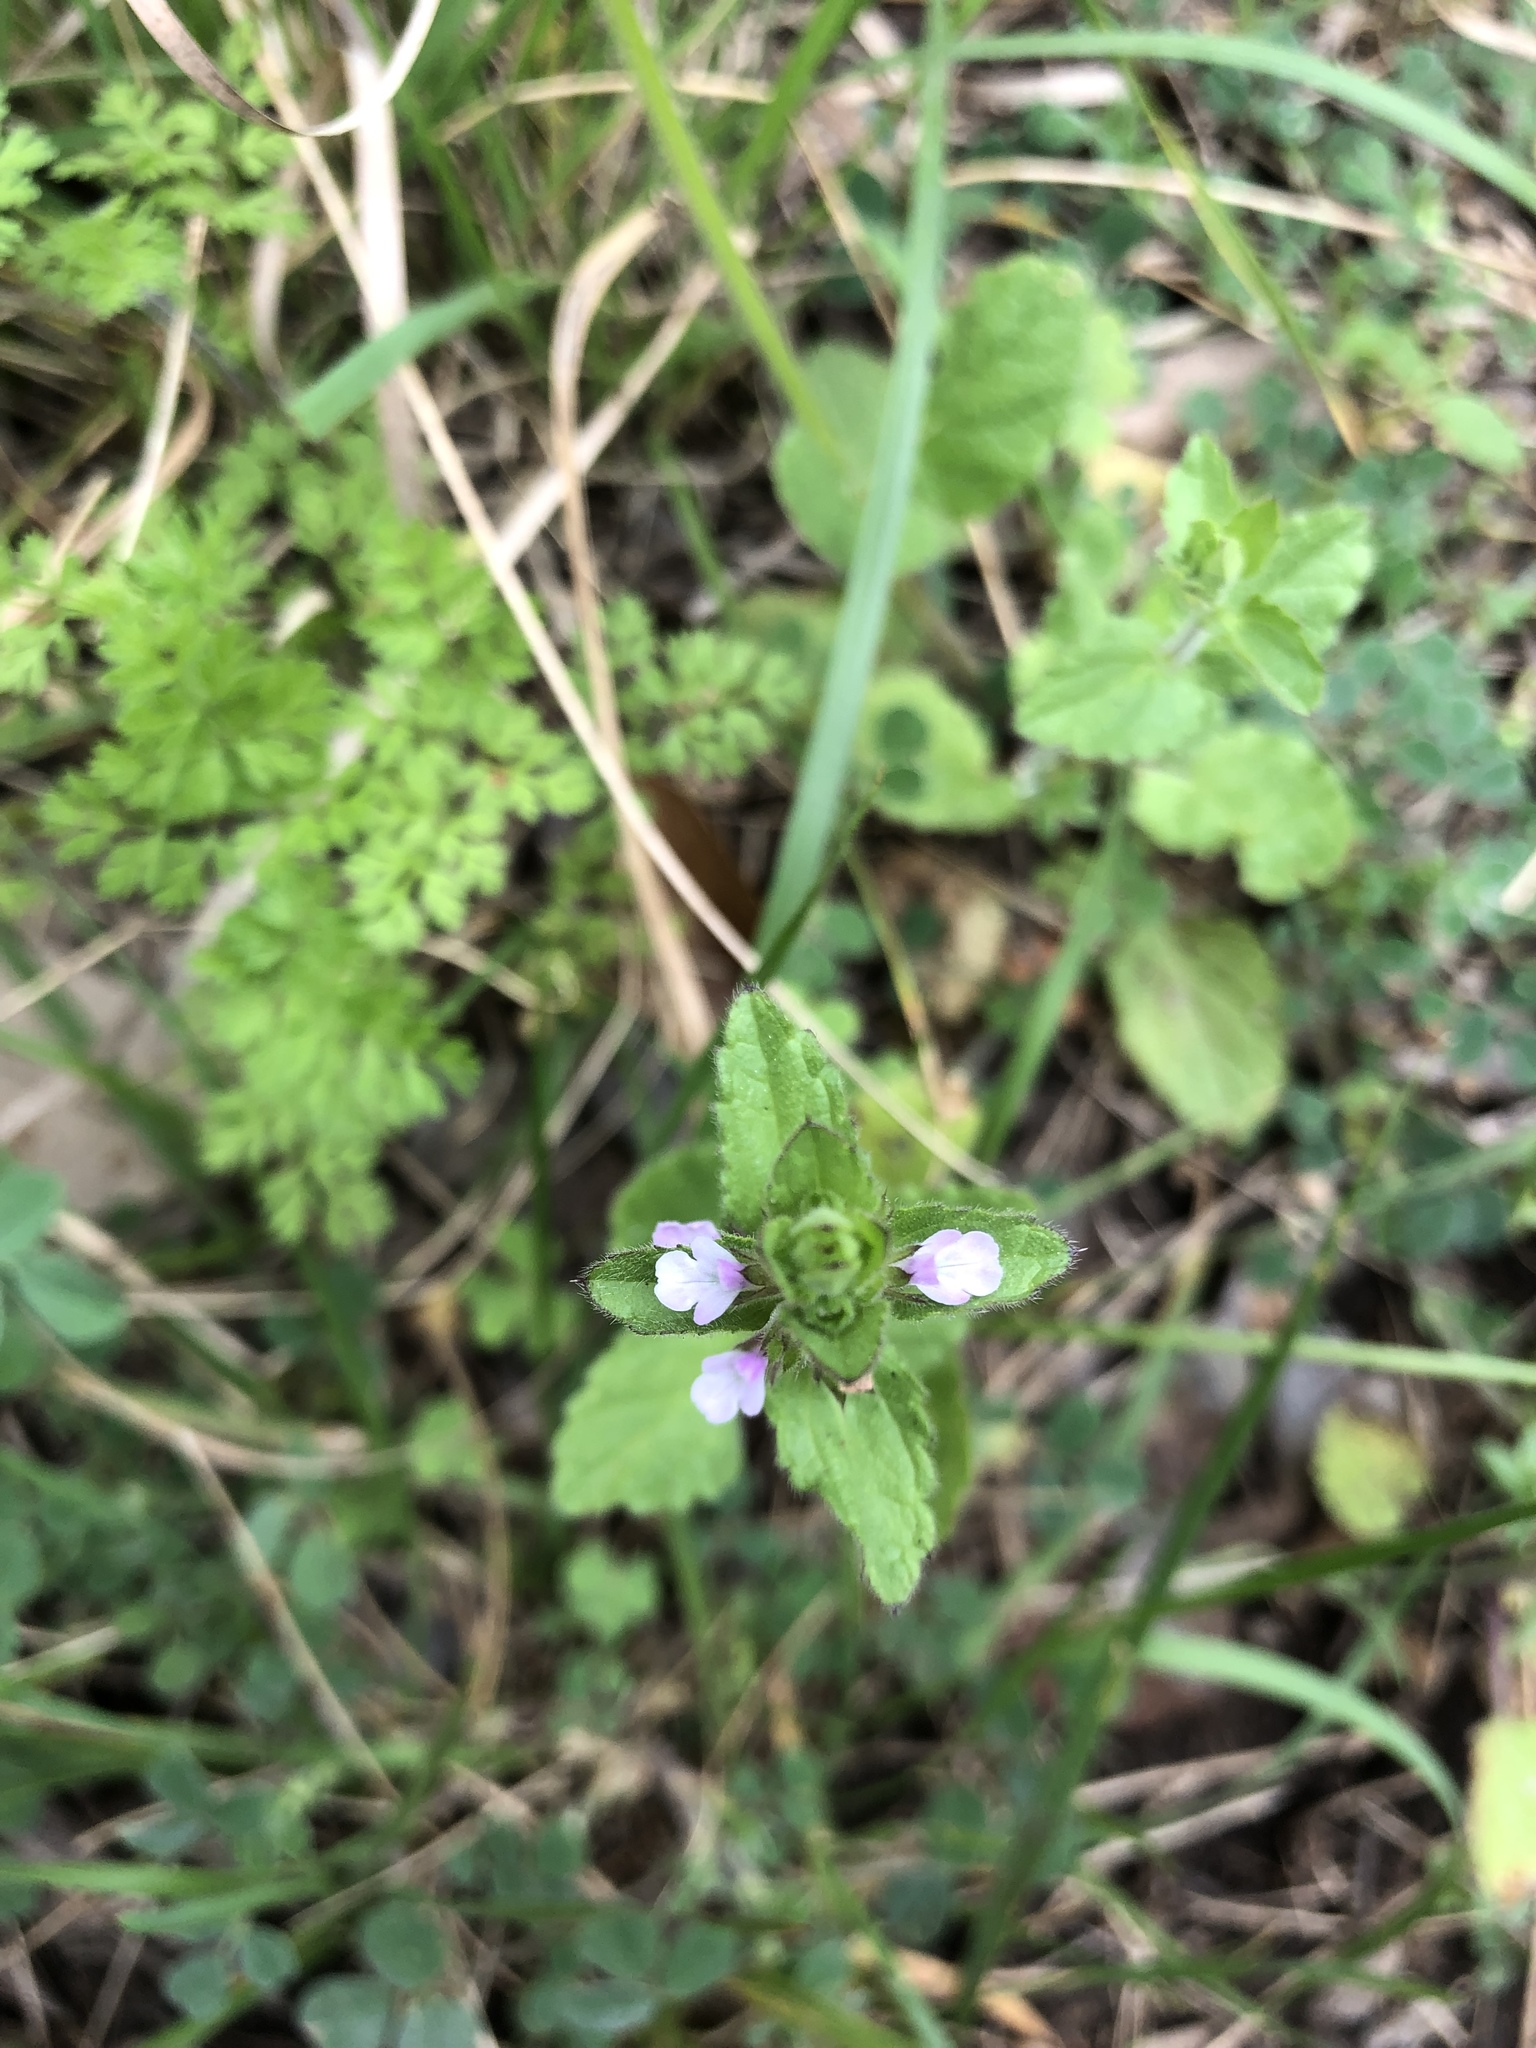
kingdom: Plantae
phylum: Tracheophyta
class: Magnoliopsida
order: Lamiales
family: Lamiaceae
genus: Stachys
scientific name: Stachys
